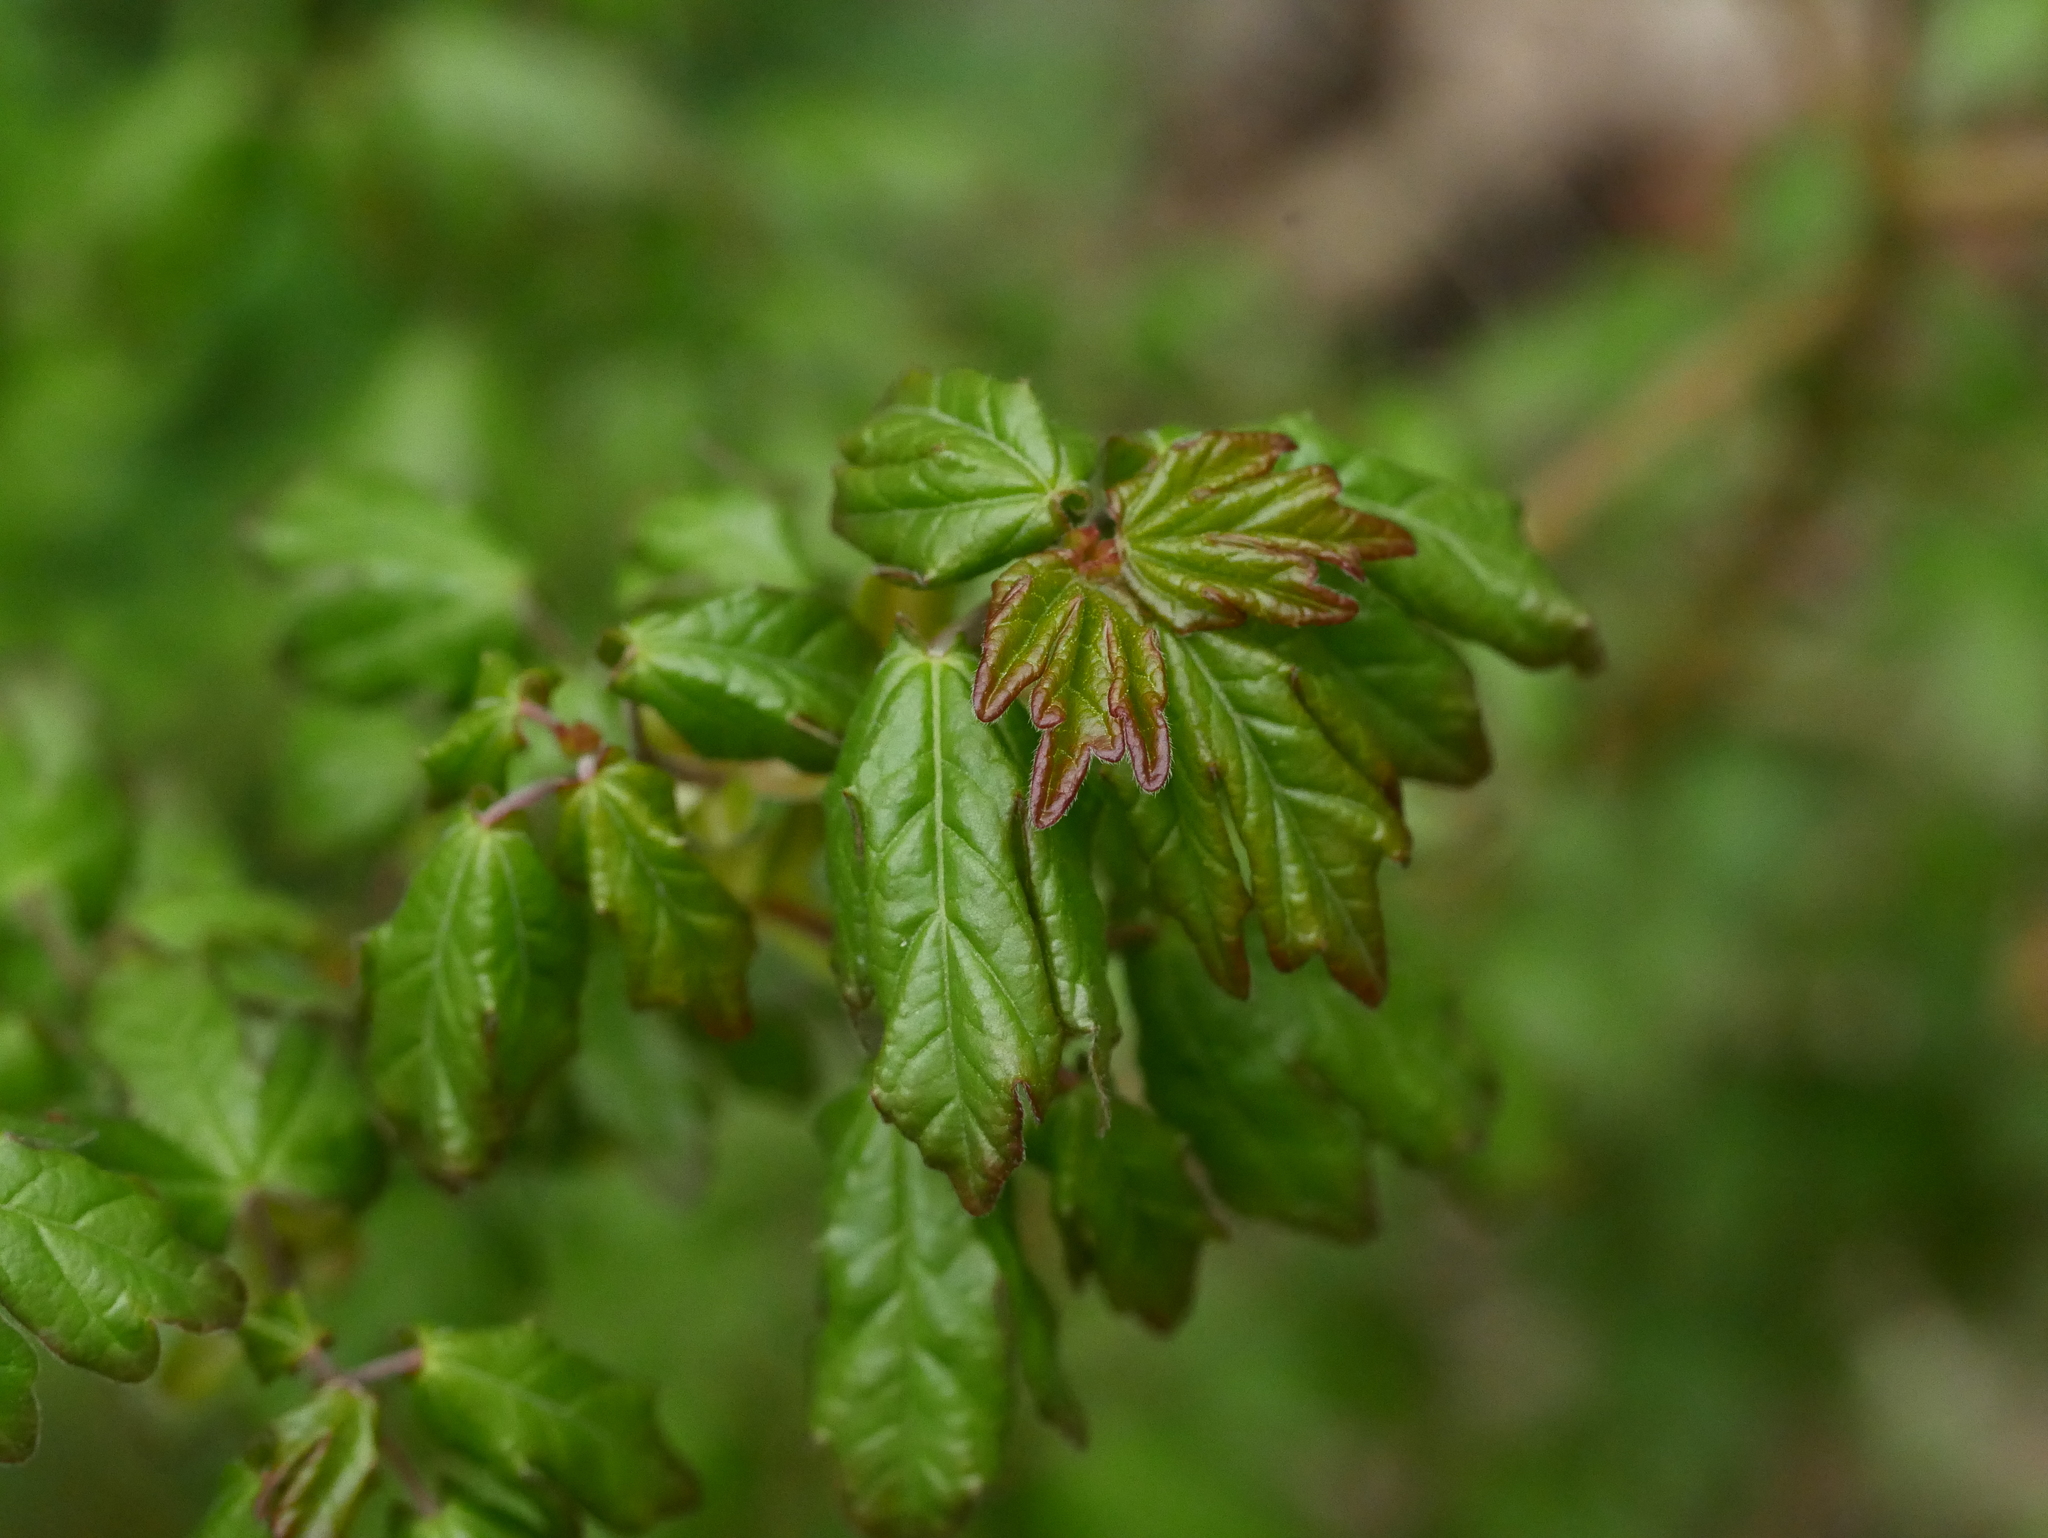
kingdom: Plantae
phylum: Tracheophyta
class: Magnoliopsida
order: Sapindales
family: Sapindaceae
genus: Acer
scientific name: Acer campestre
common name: Field maple
